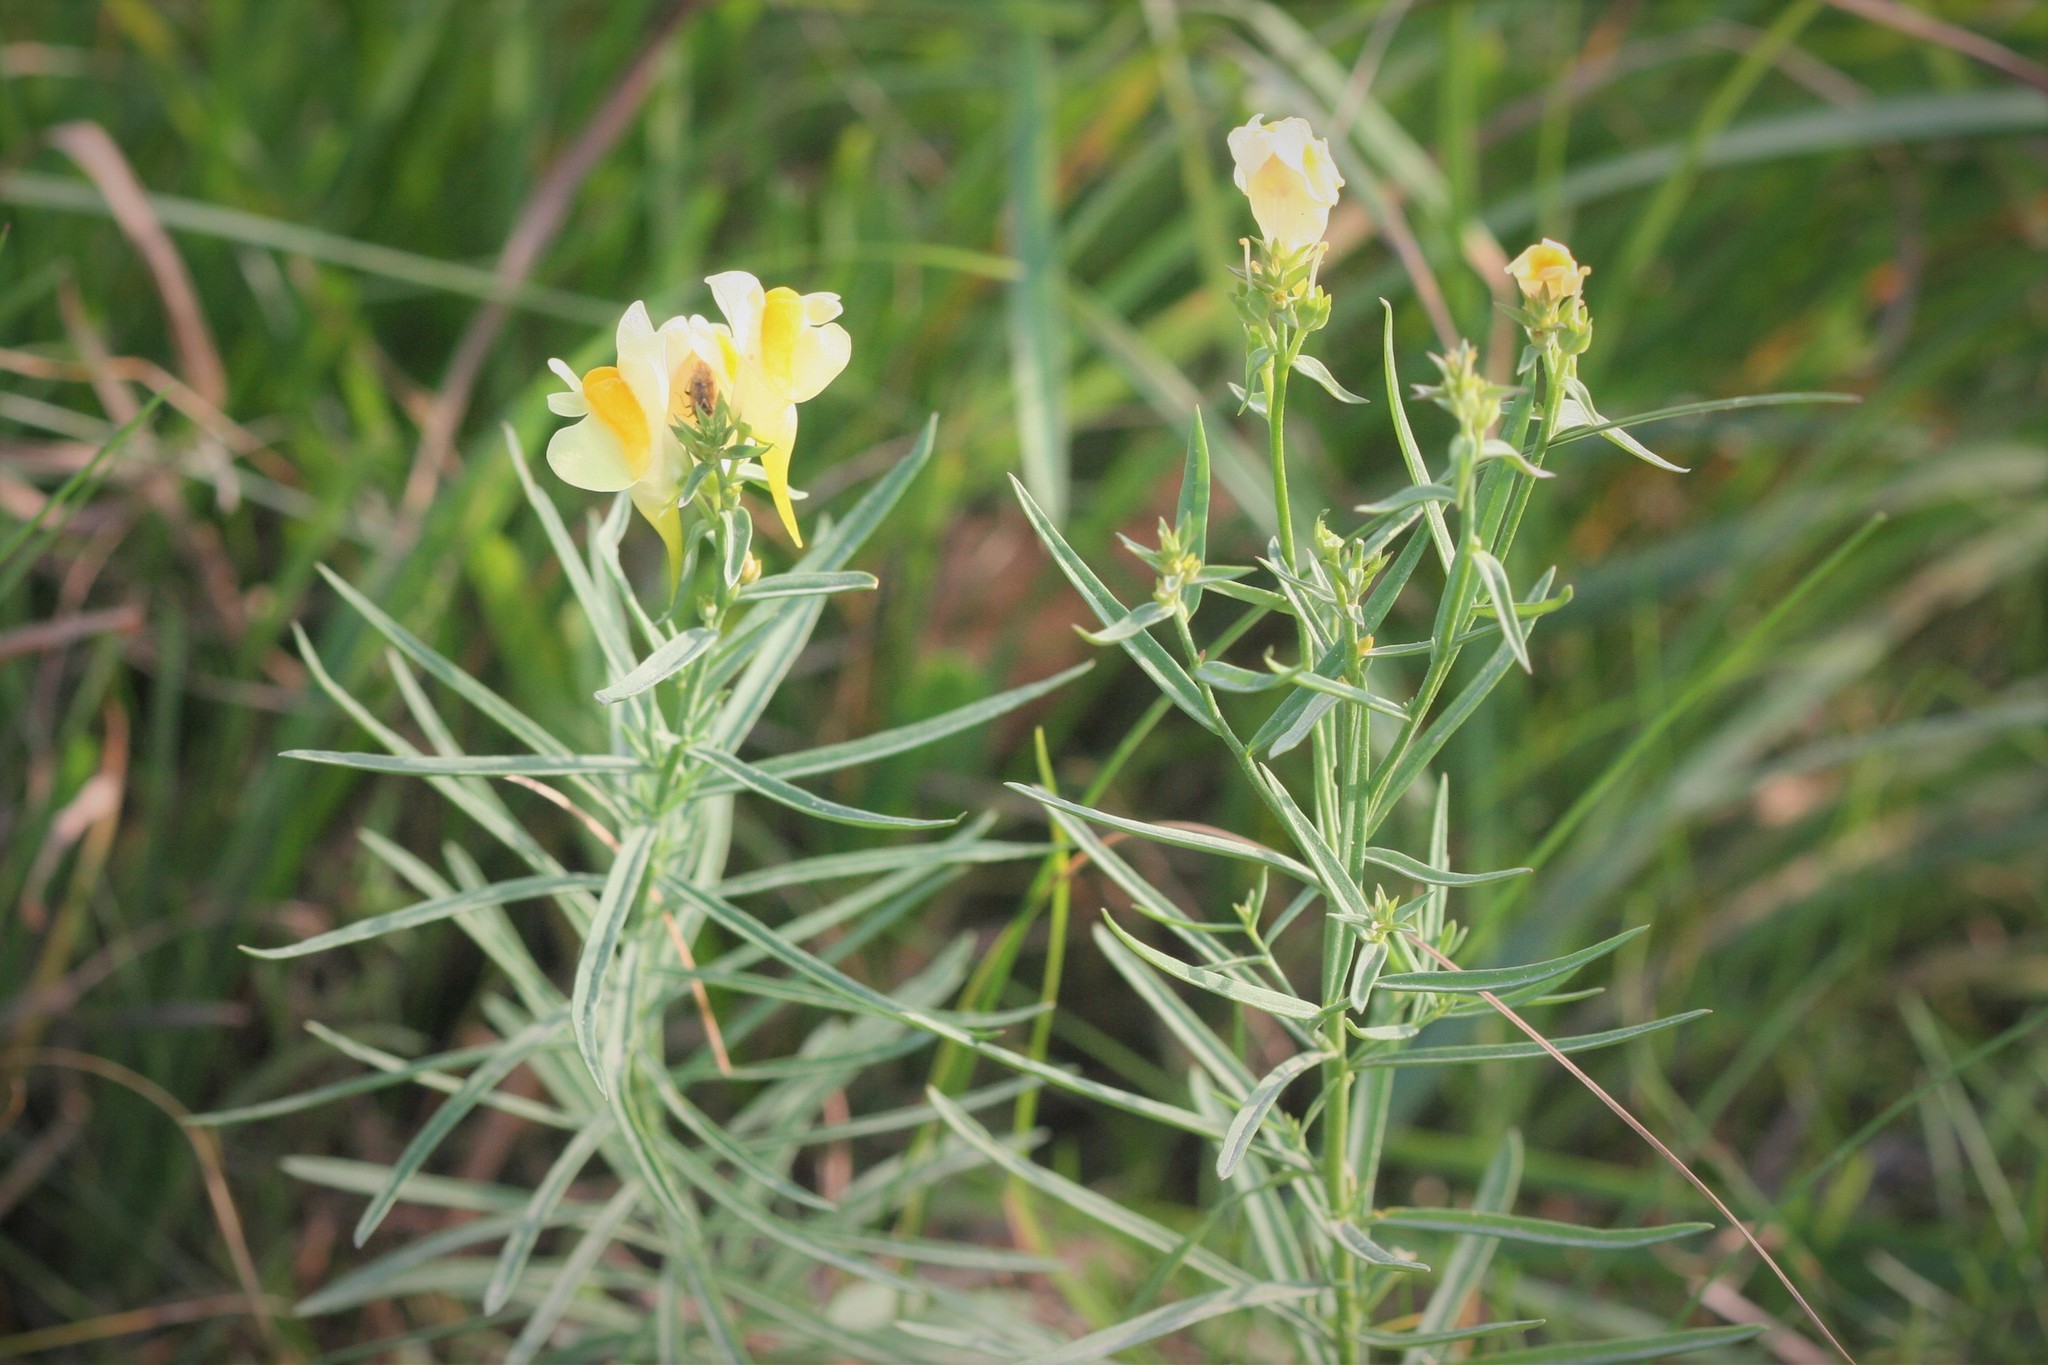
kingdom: Plantae
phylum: Tracheophyta
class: Magnoliopsida
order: Lamiales
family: Plantaginaceae
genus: Linaria
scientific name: Linaria vulgaris
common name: Butter and eggs
